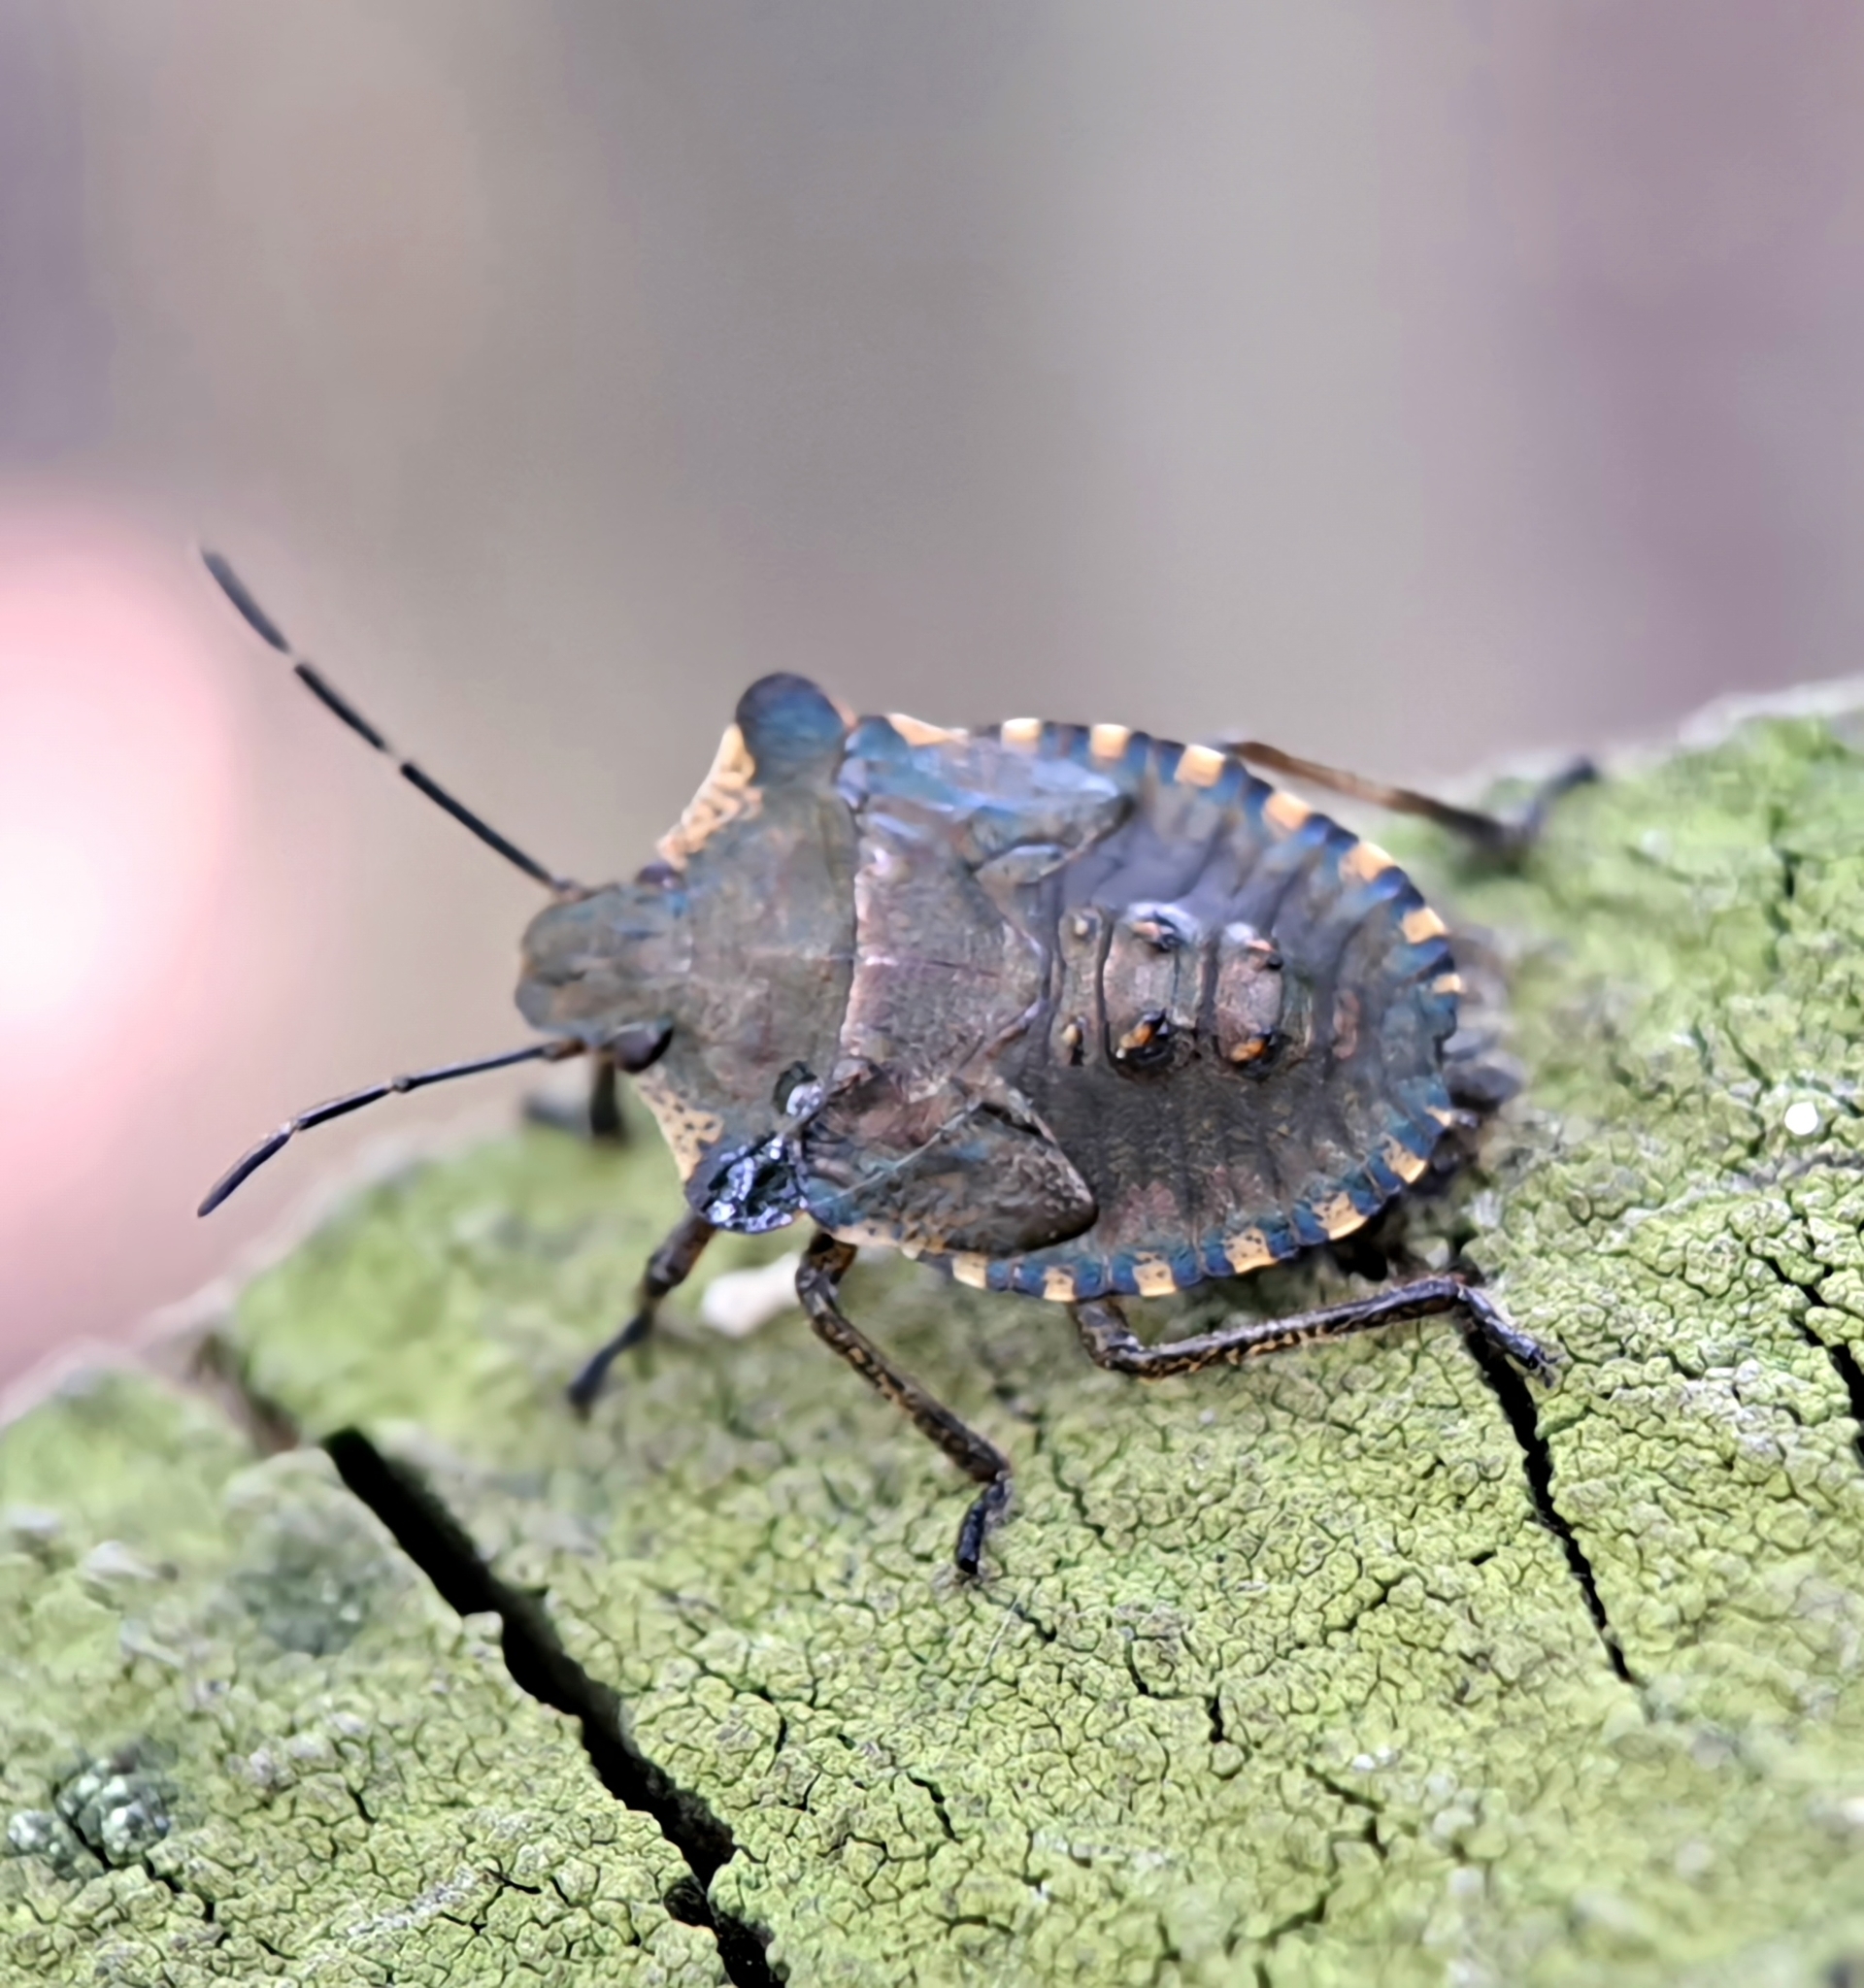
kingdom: Animalia
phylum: Arthropoda
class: Insecta
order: Hemiptera
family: Pentatomidae
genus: Pentatoma
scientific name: Pentatoma rufipes
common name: Forest bug
